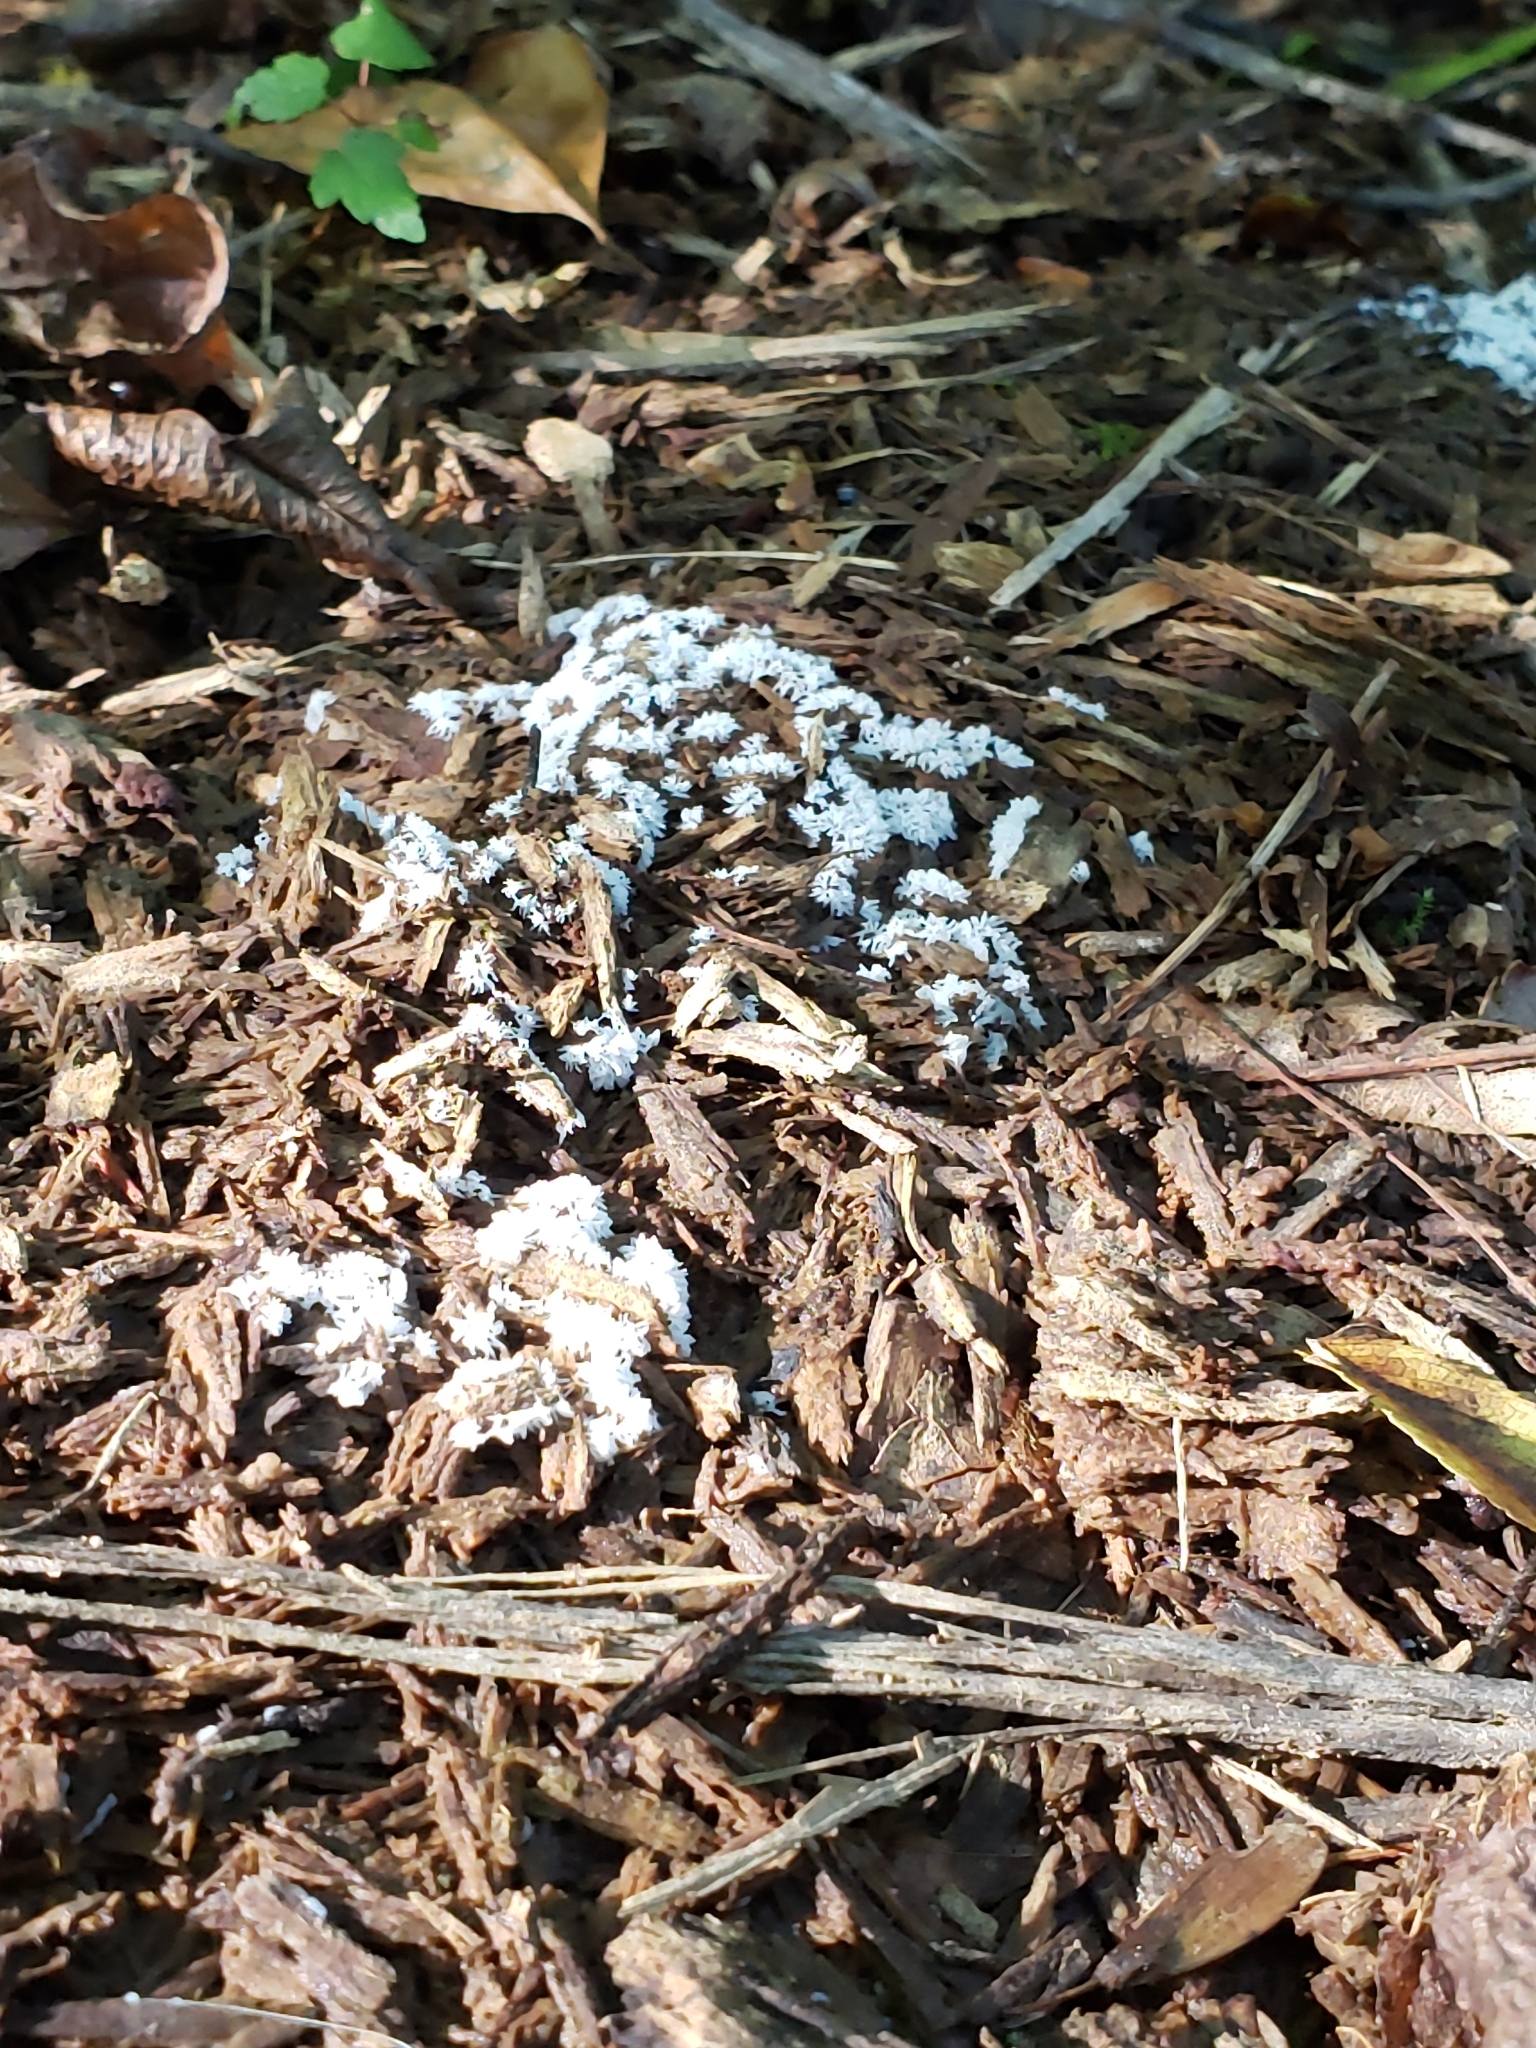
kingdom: Protozoa
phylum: Mycetozoa
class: Protosteliomycetes
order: Ceratiomyxales
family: Ceratiomyxaceae
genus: Ceratiomyxa
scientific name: Ceratiomyxa fruticulosa
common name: Honeycomb coral slime mold
